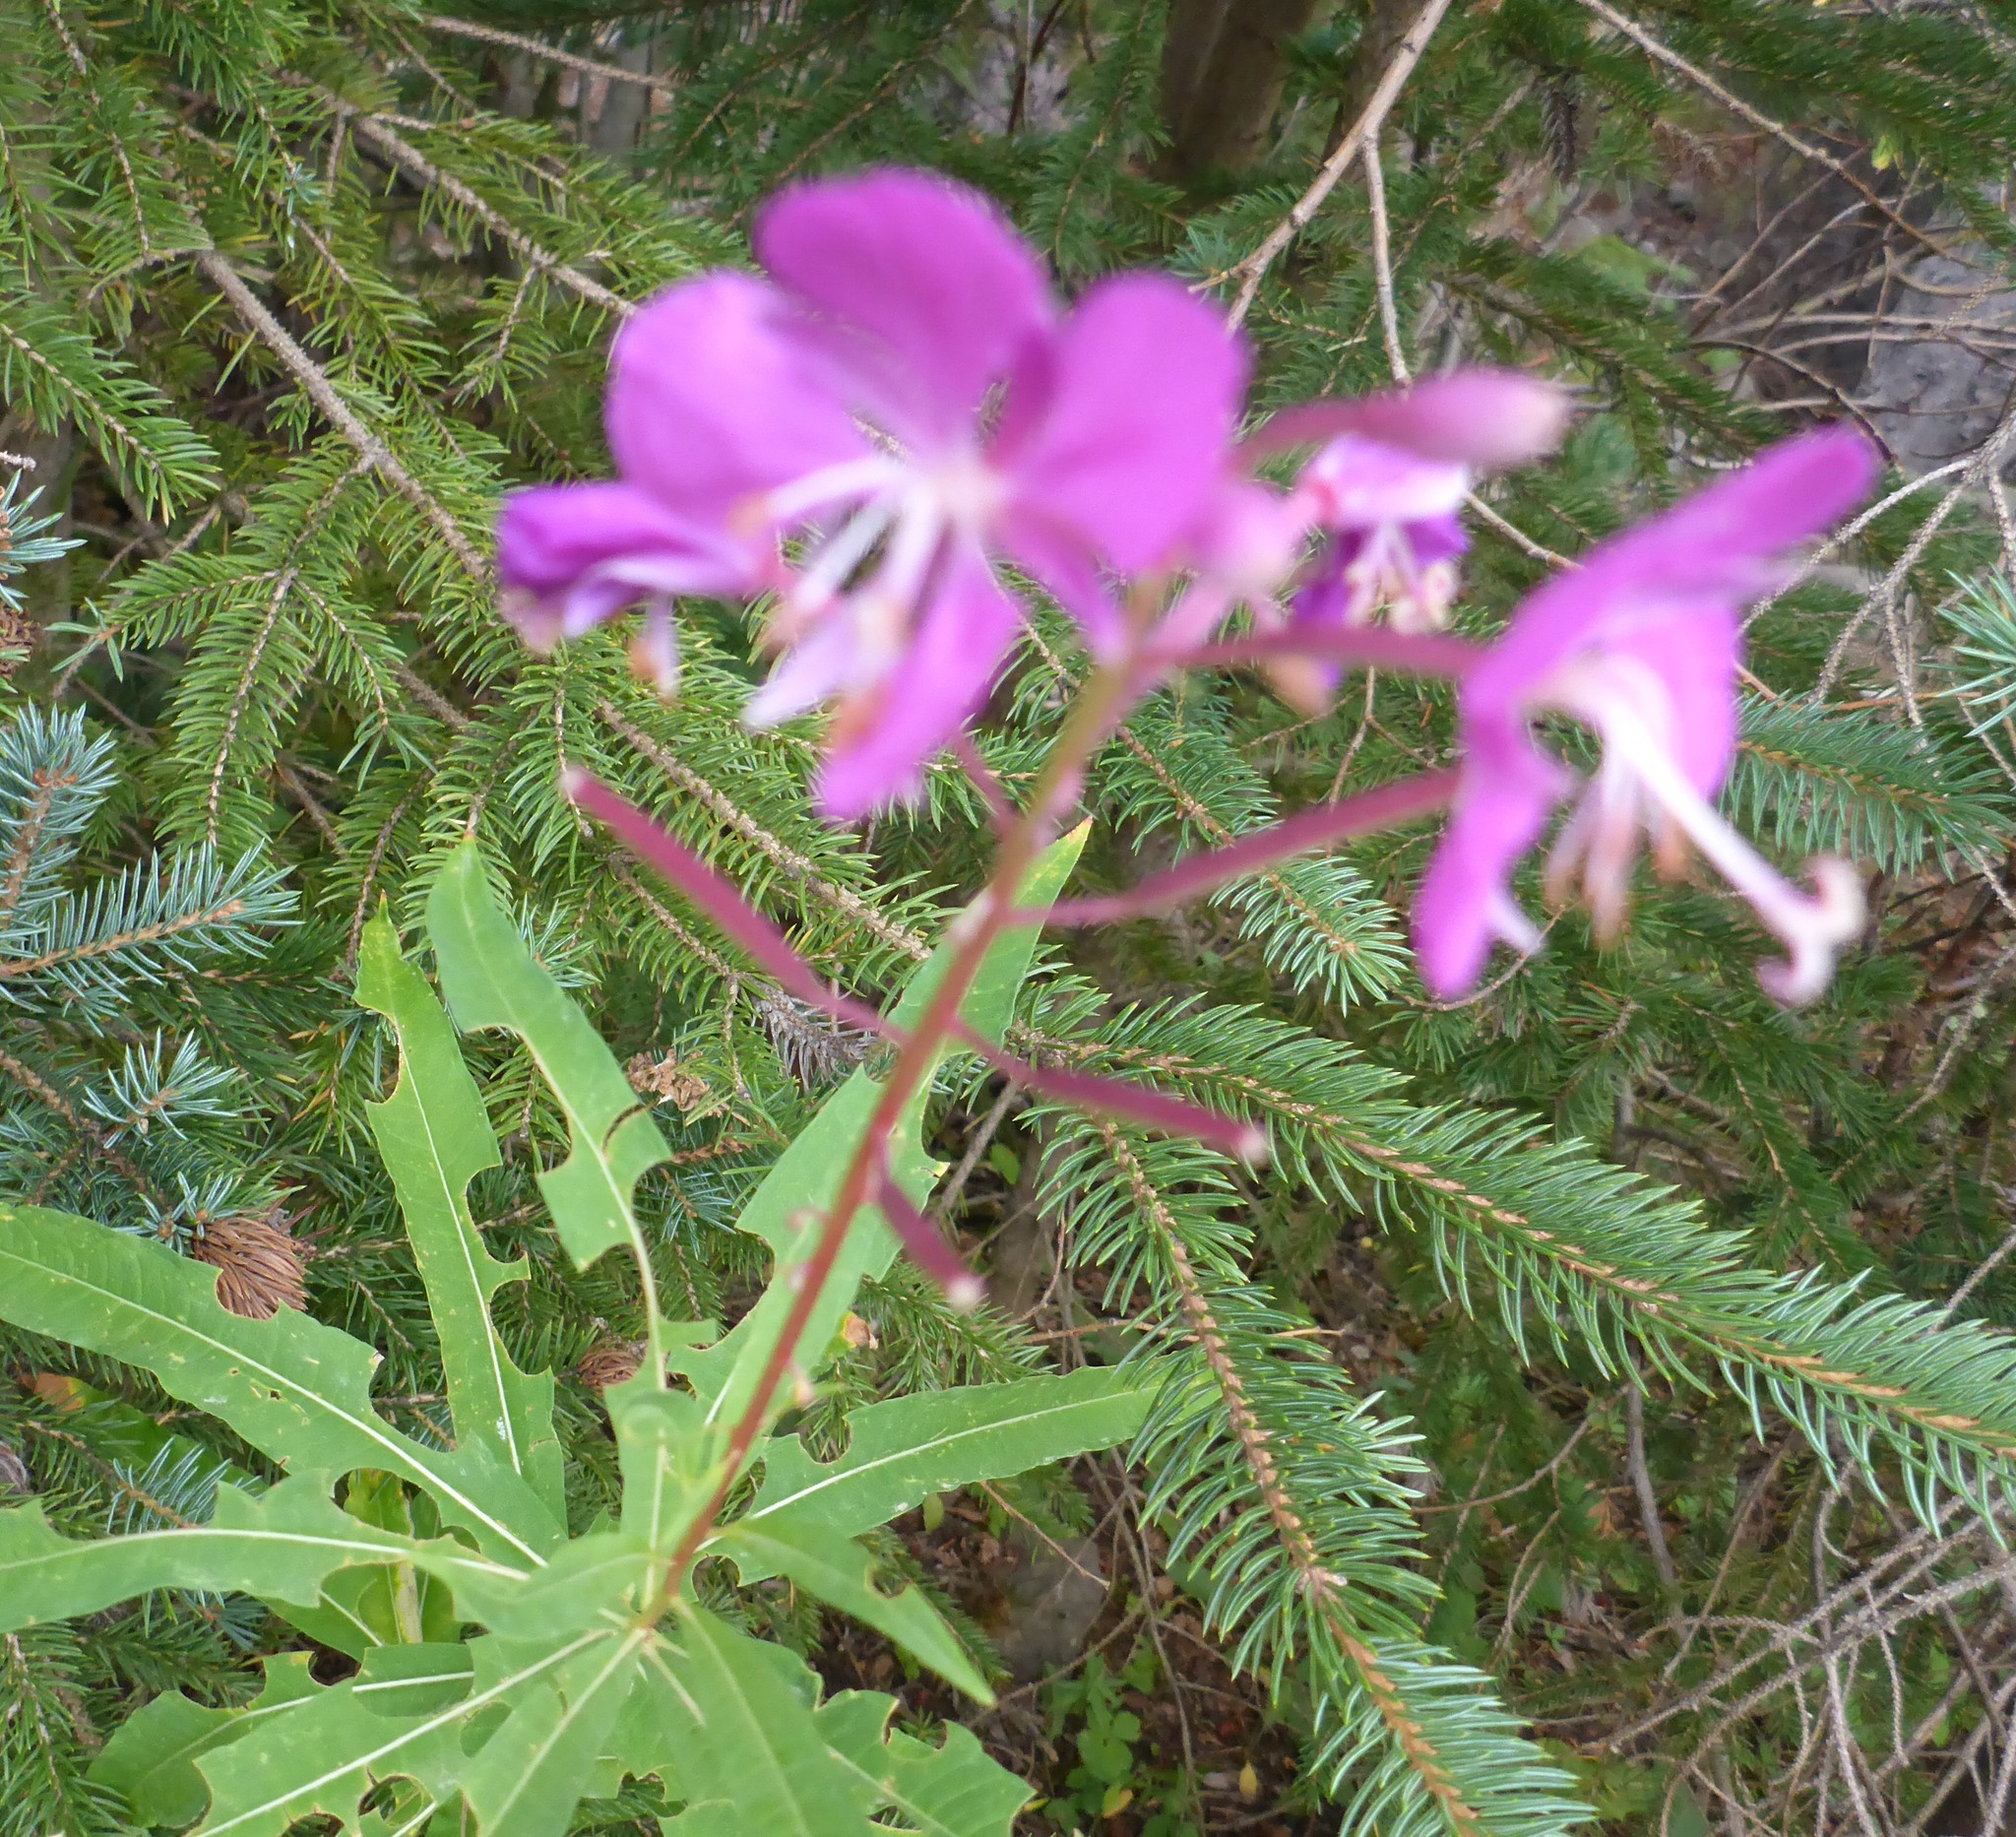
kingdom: Plantae
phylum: Tracheophyta
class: Magnoliopsida
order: Myrtales
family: Onagraceae
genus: Chamaenerion
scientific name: Chamaenerion angustifolium
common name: Fireweed
